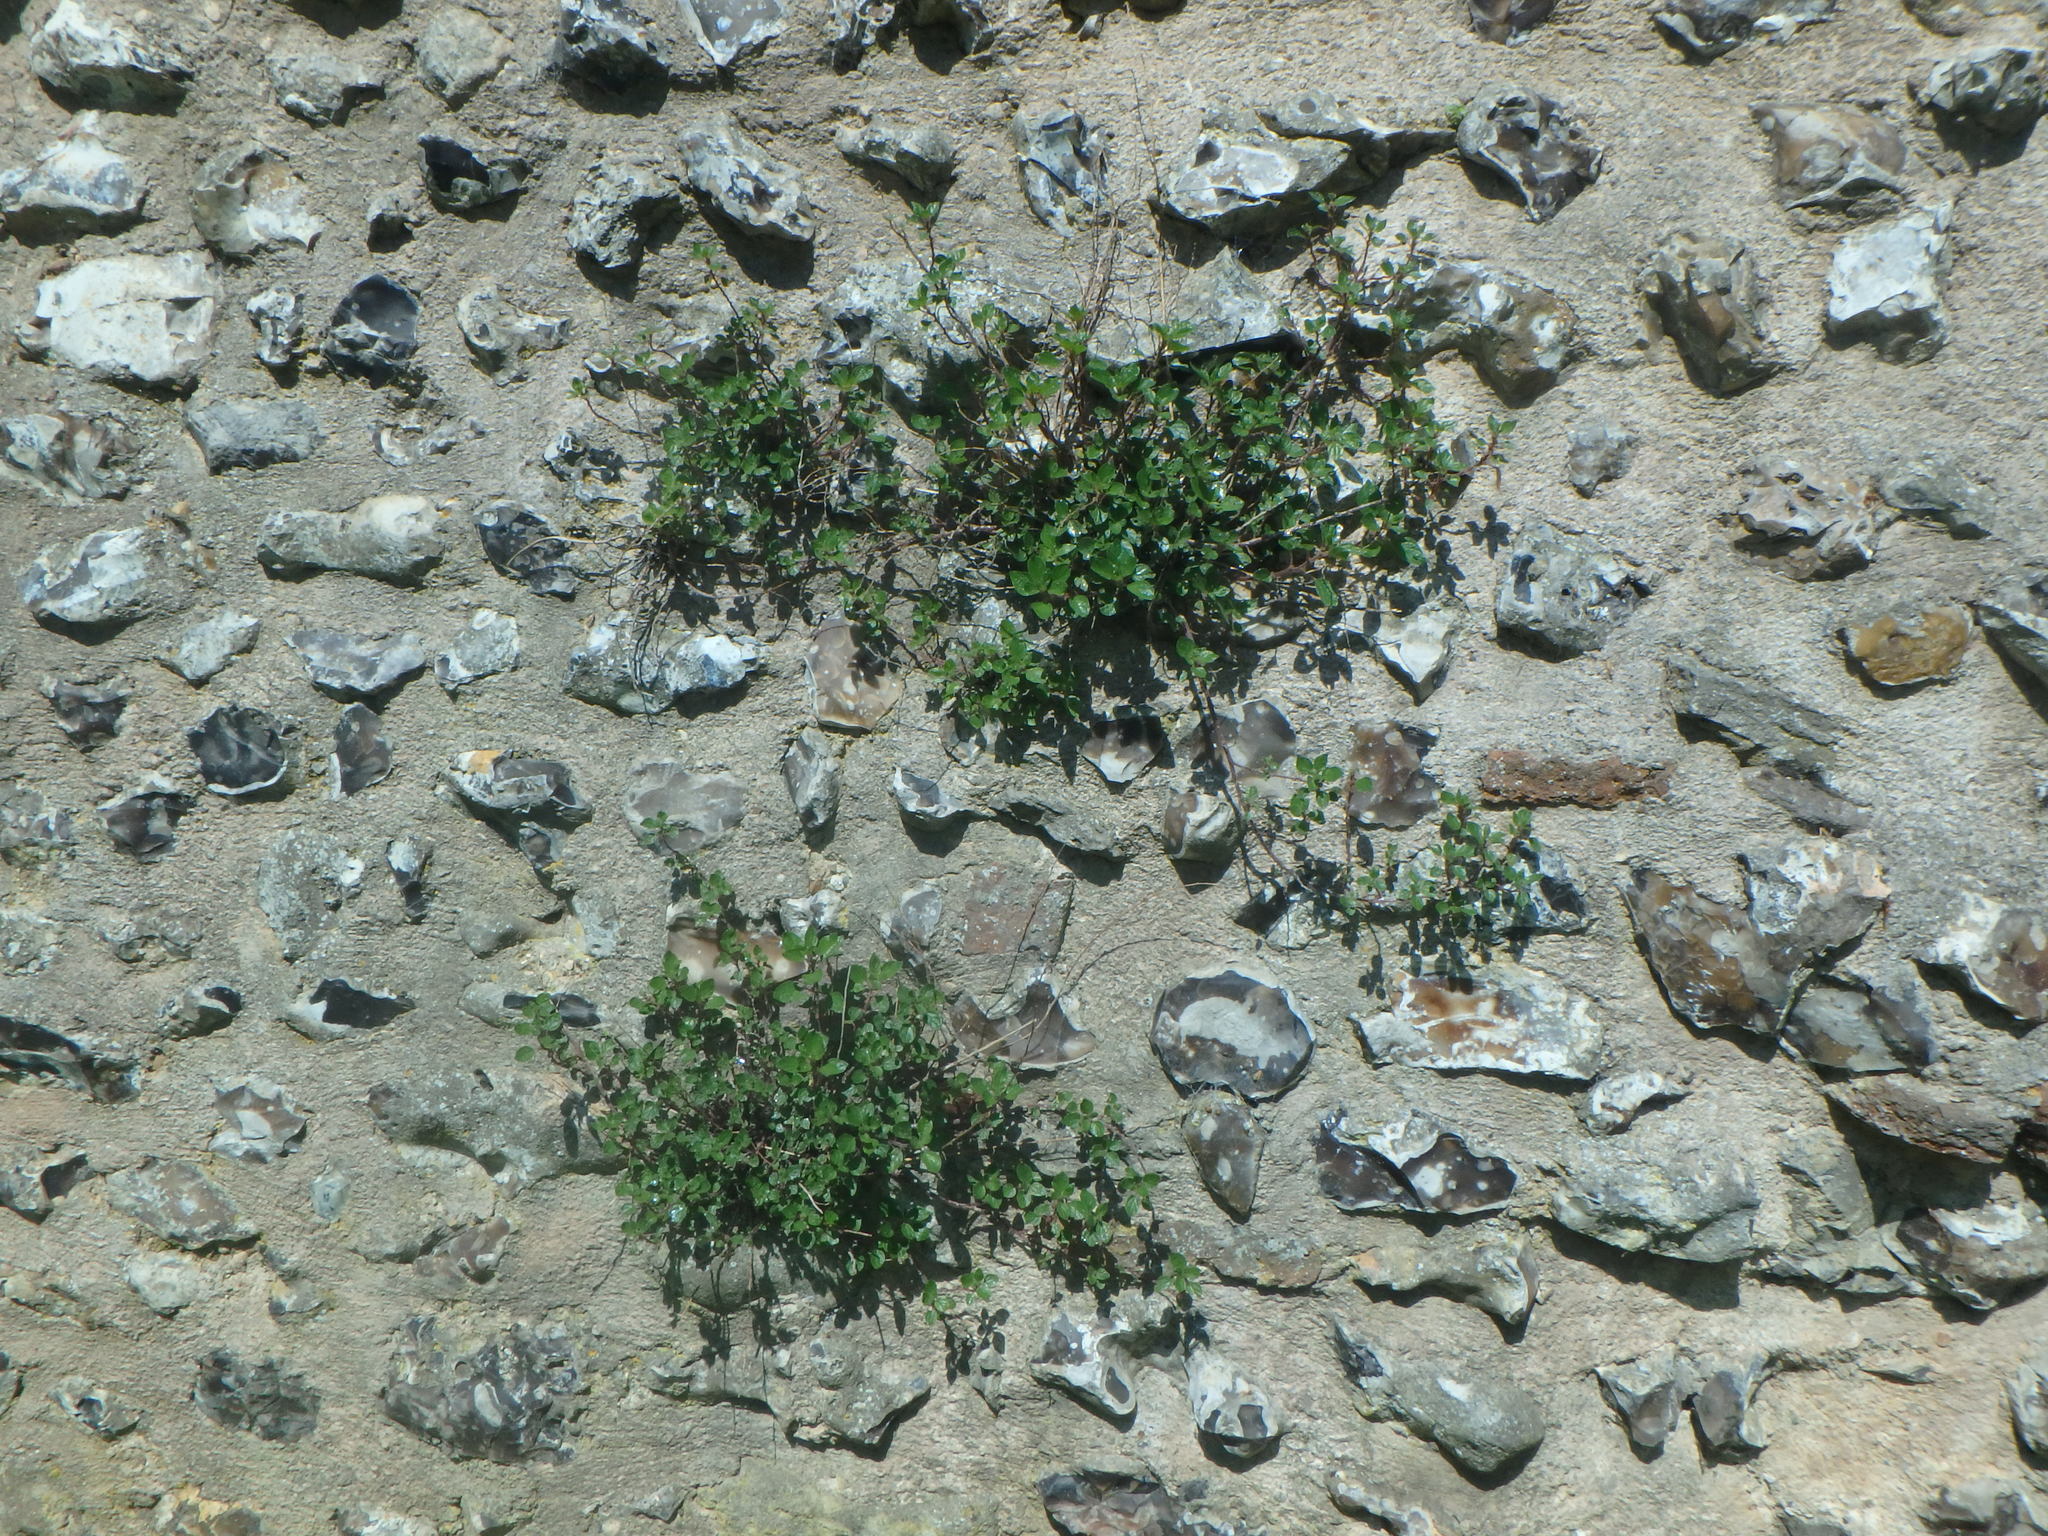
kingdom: Plantae
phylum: Tracheophyta
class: Magnoliopsida
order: Rosales
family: Urticaceae
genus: Parietaria
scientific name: Parietaria judaica
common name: Pellitory-of-the-wall
